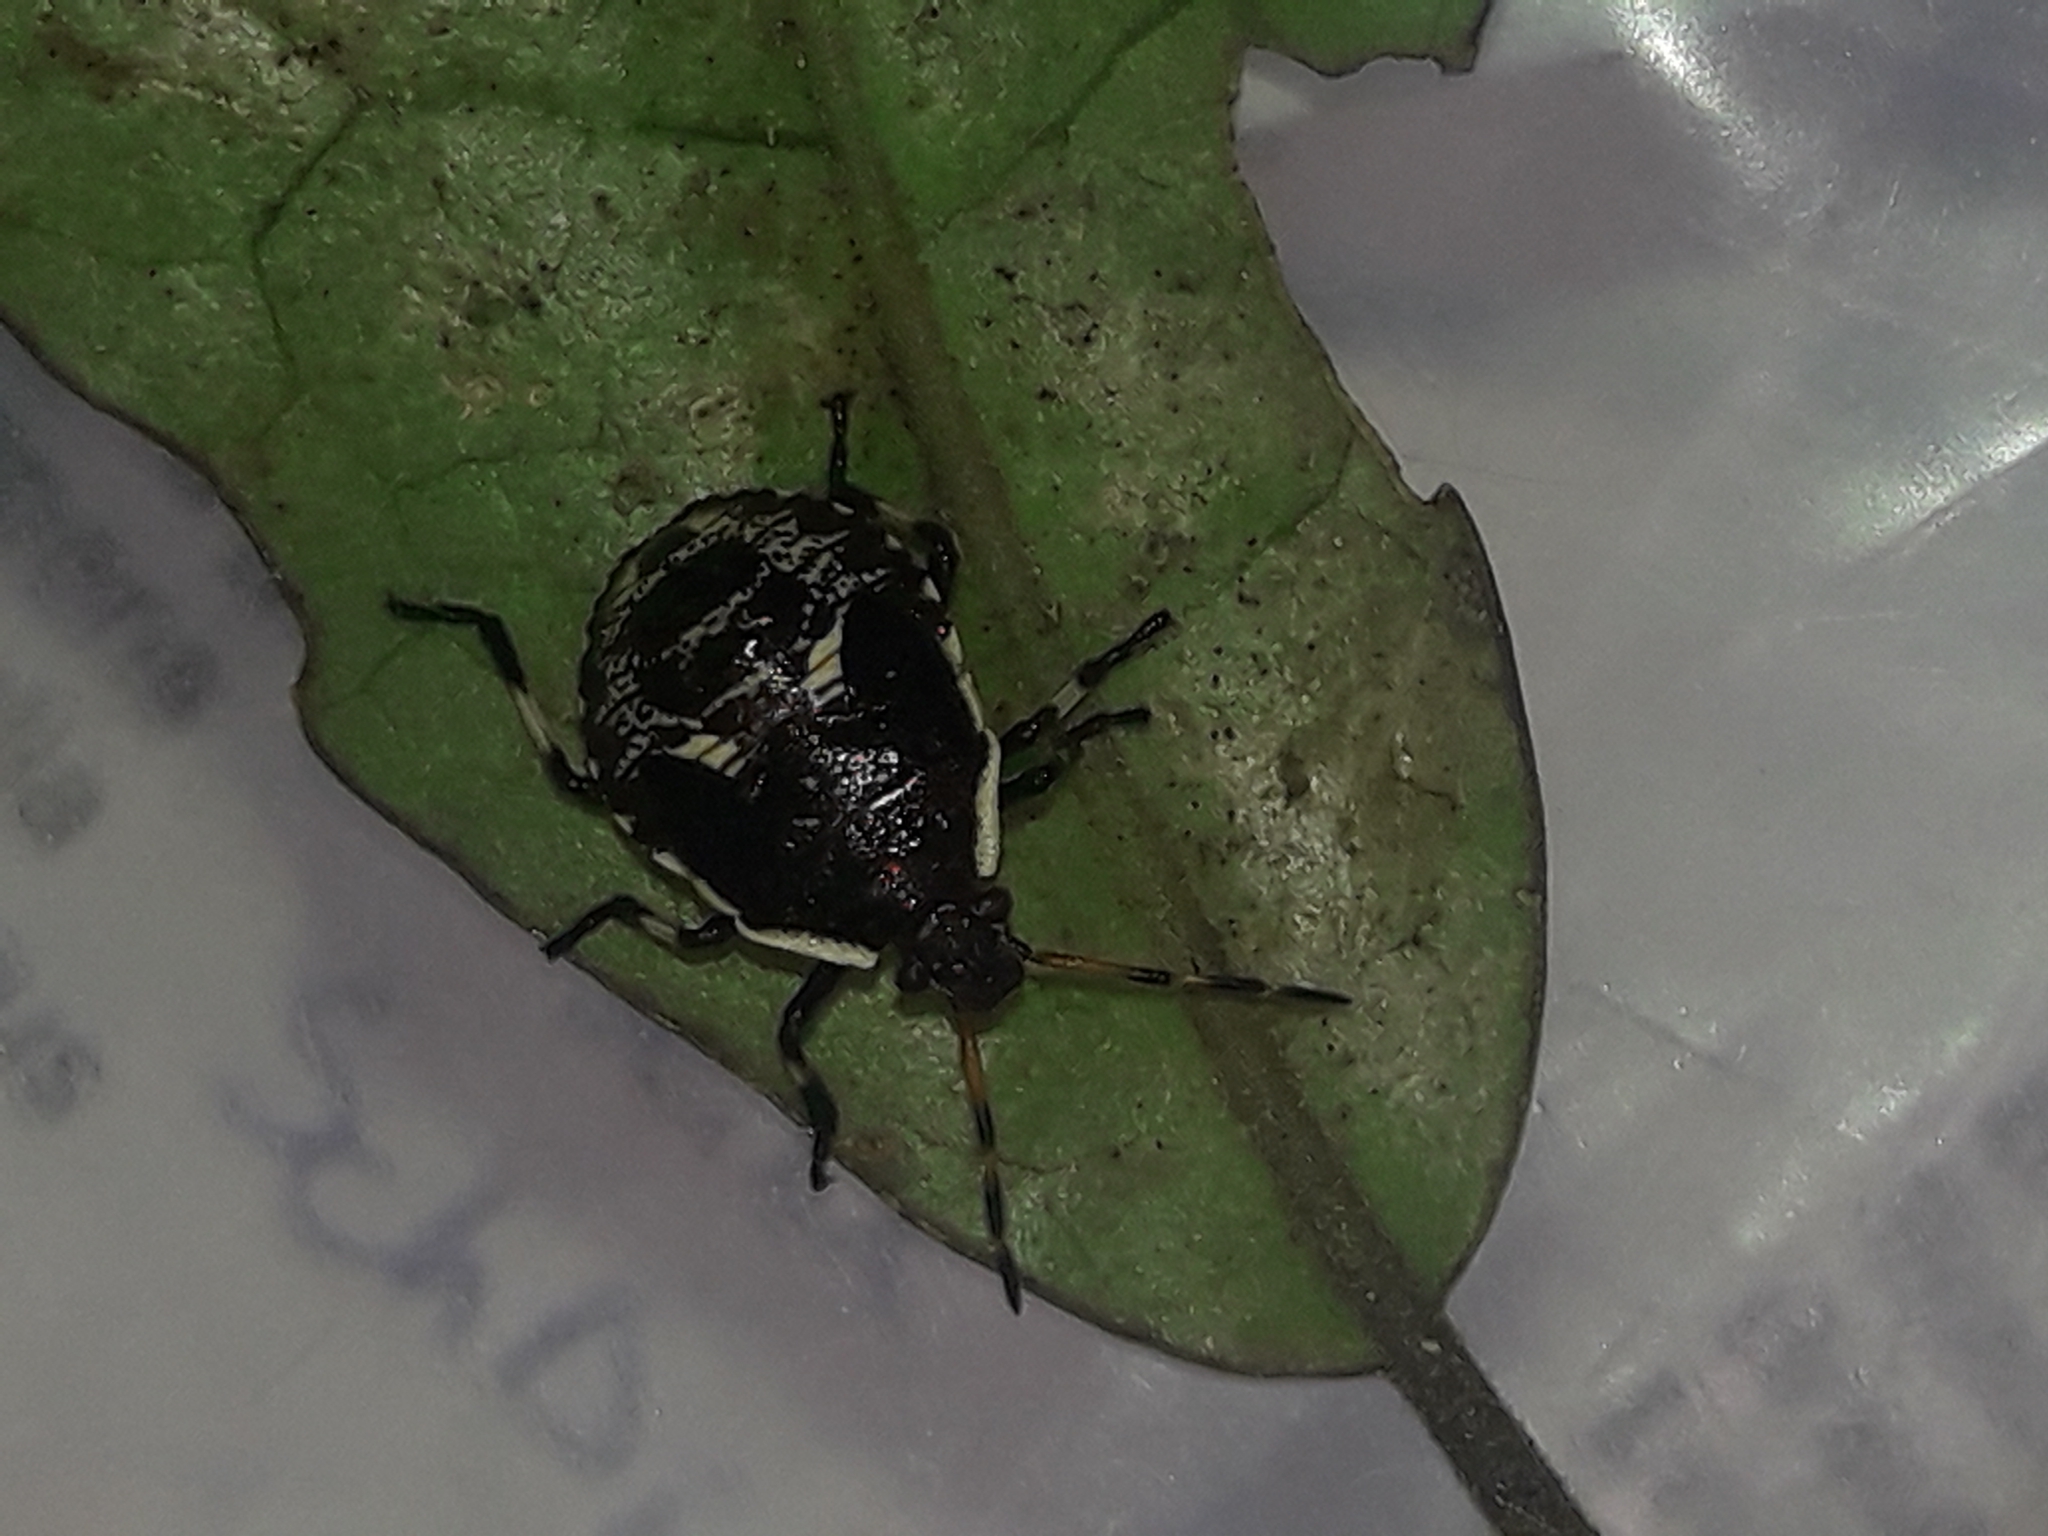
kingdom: Animalia
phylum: Arthropoda
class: Insecta
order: Hemiptera
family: Pentatomidae
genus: Cermatulus
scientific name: Cermatulus nasalis
